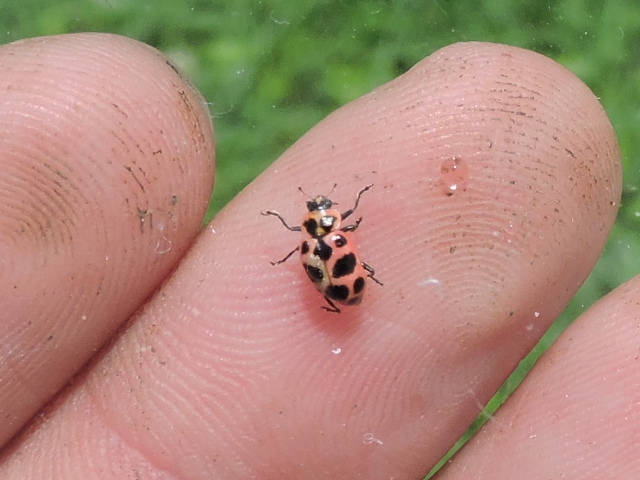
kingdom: Animalia
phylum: Arthropoda
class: Insecta
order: Coleoptera
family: Coccinellidae
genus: Coleomegilla
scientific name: Coleomegilla maculata
